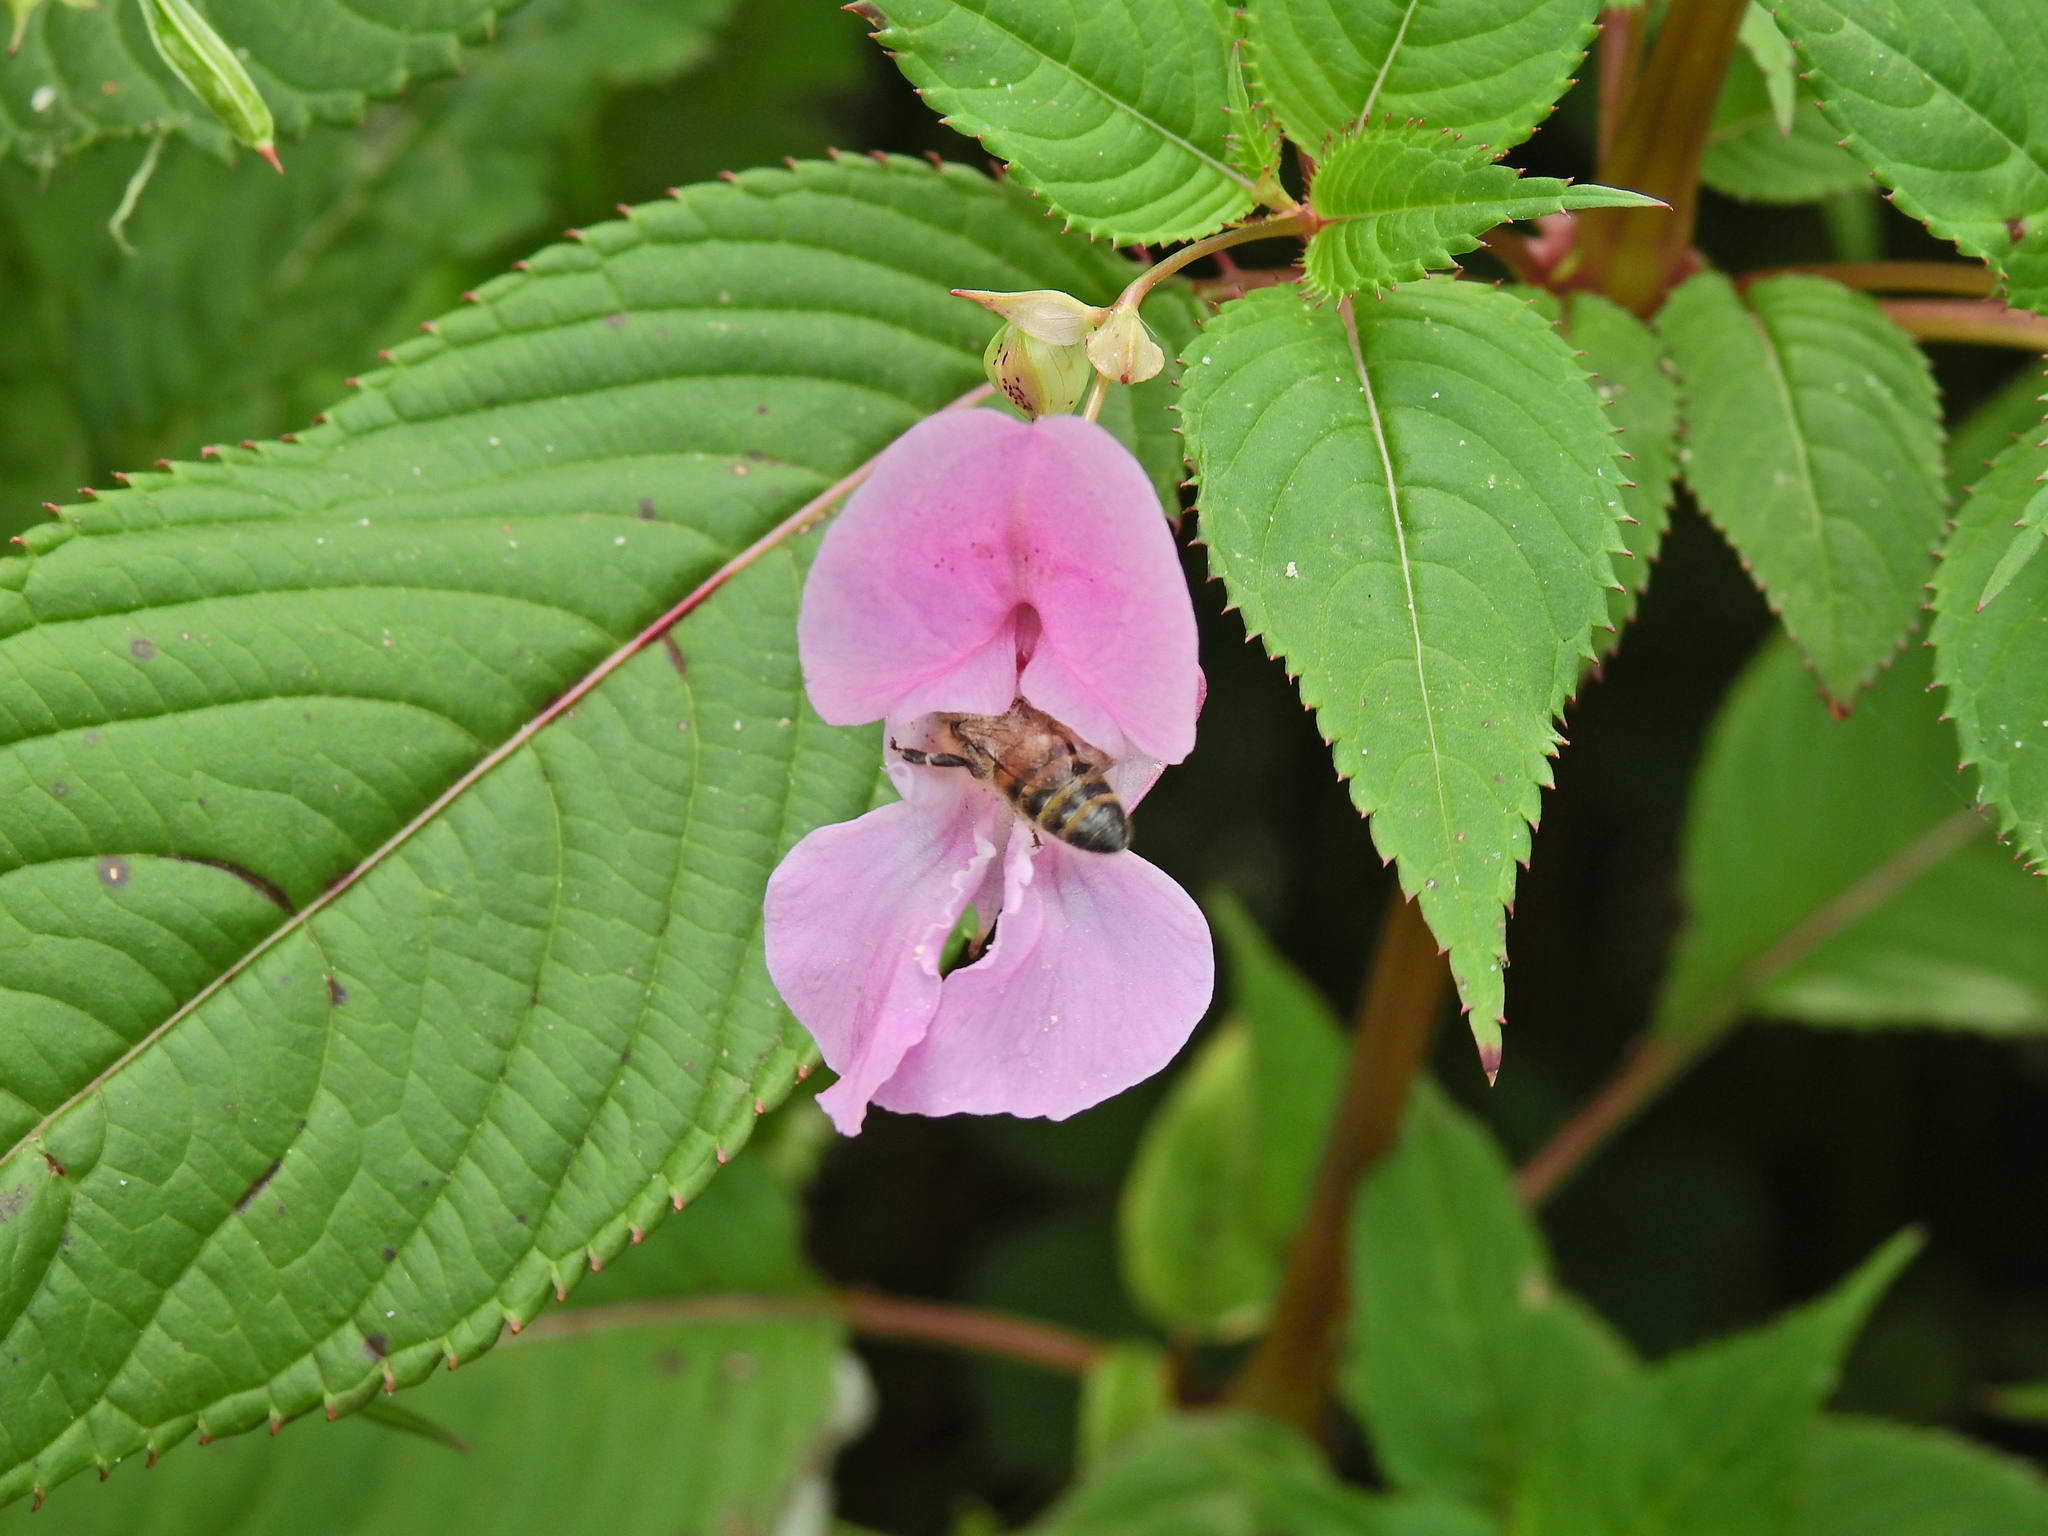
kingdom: Plantae
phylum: Tracheophyta
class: Magnoliopsida
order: Ericales
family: Balsaminaceae
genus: Impatiens
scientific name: Impatiens glandulifera
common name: Himalayan balsam
